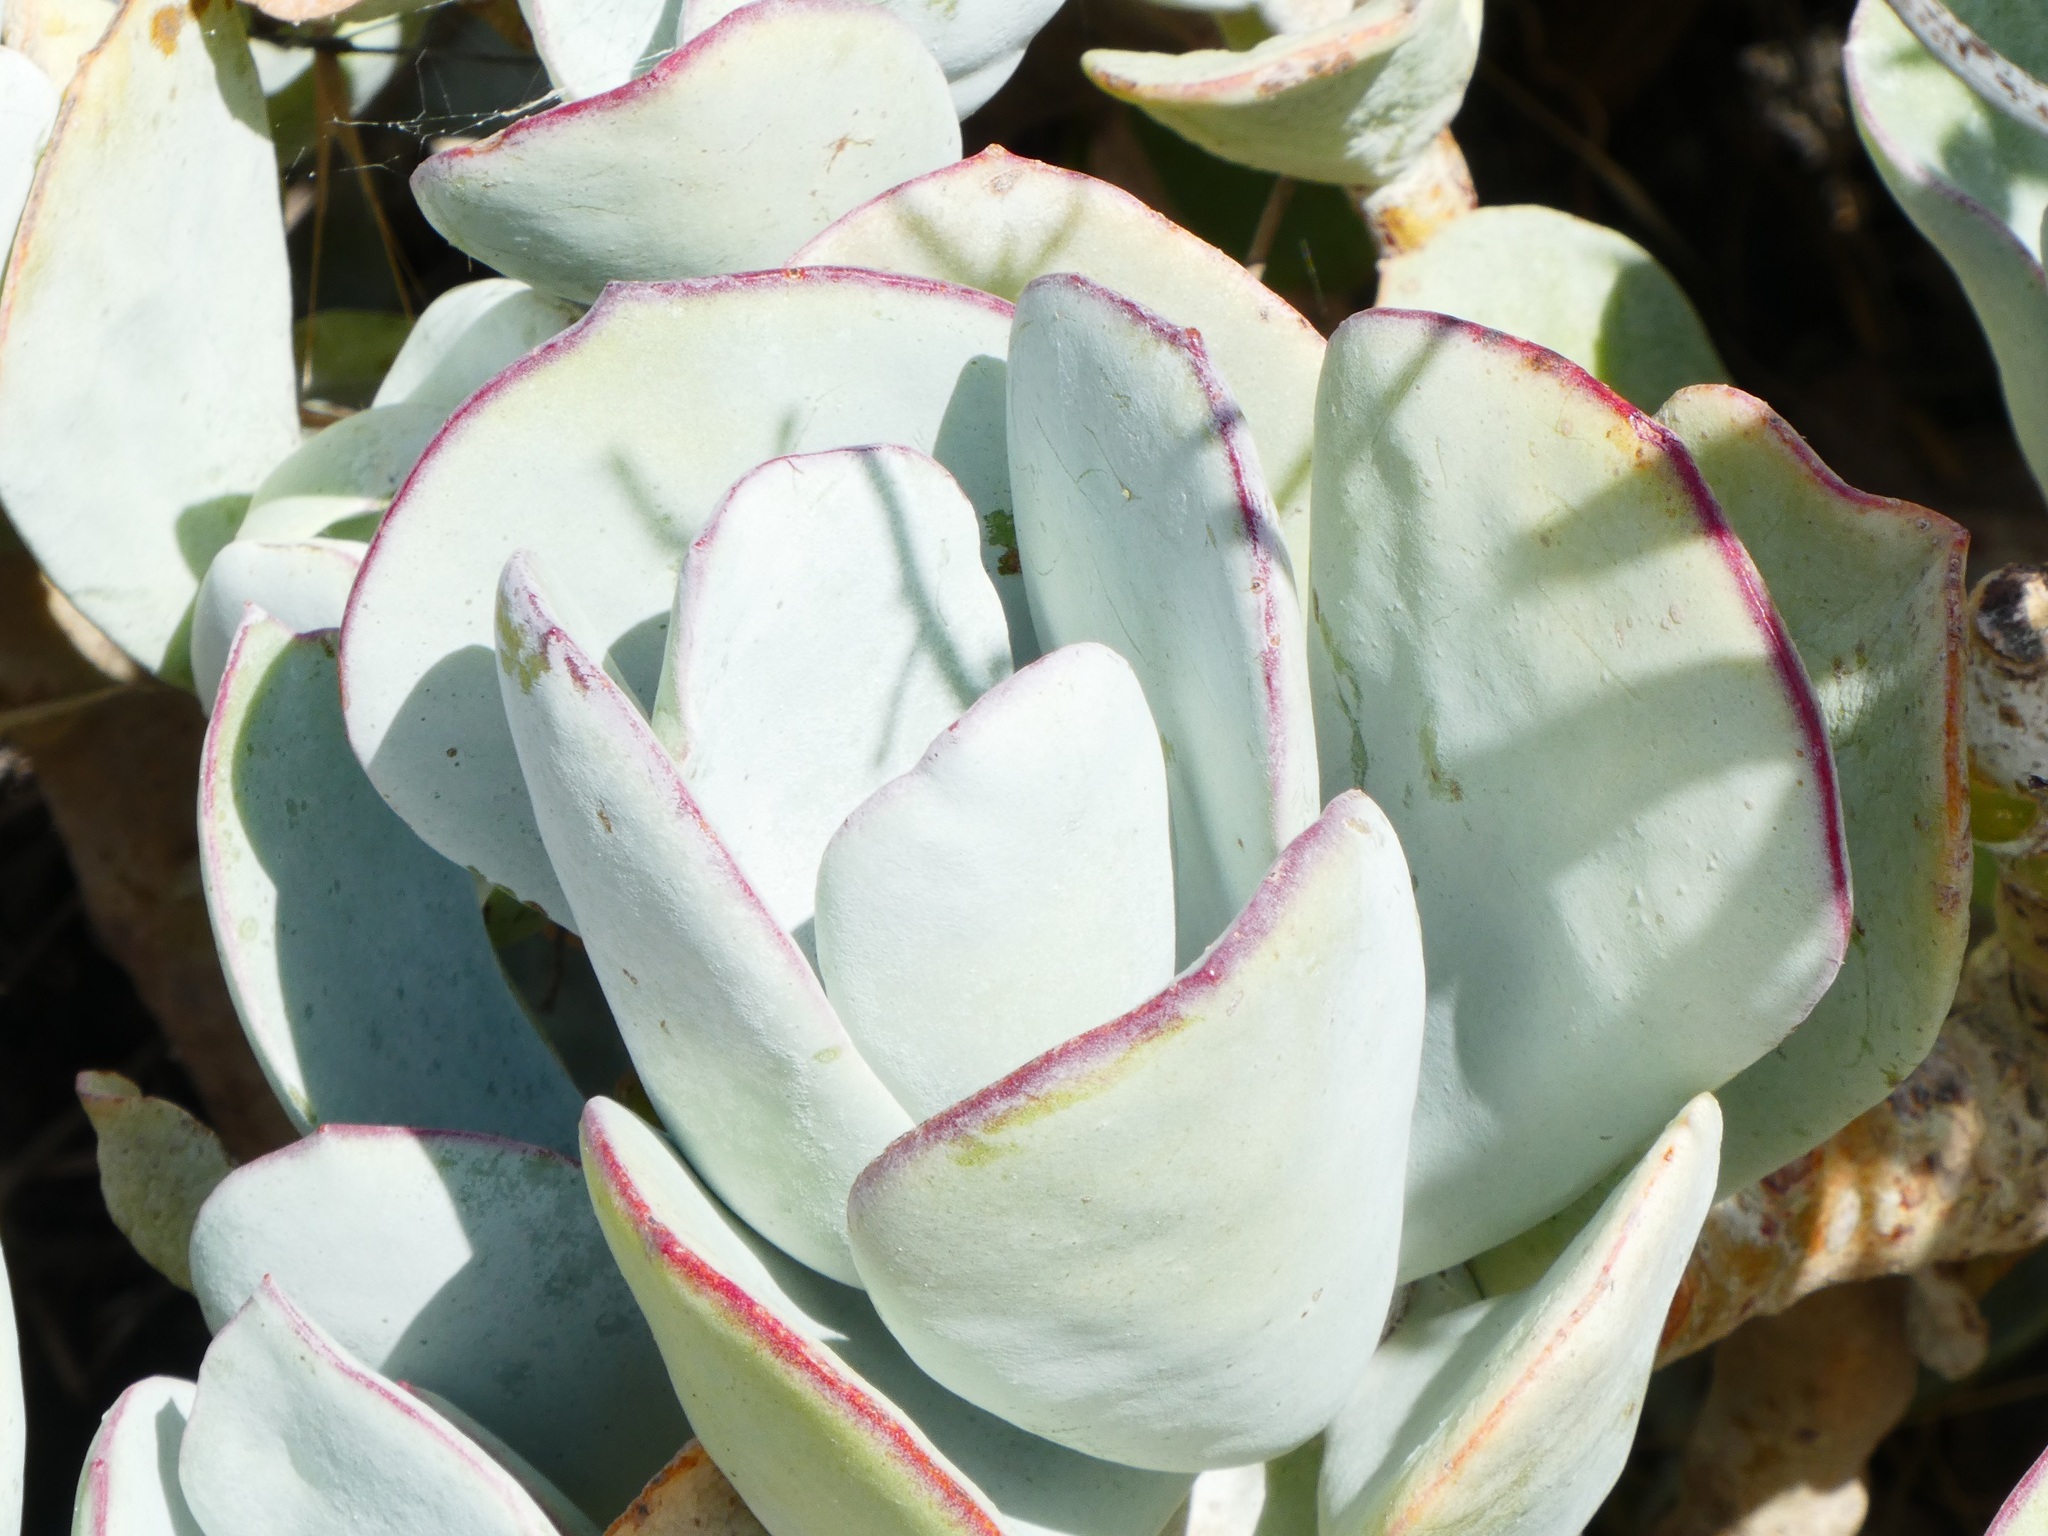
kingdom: Plantae
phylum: Tracheophyta
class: Magnoliopsida
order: Saxifragales
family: Crassulaceae
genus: Cotyledon
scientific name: Cotyledon orbiculata
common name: Pig's ear
